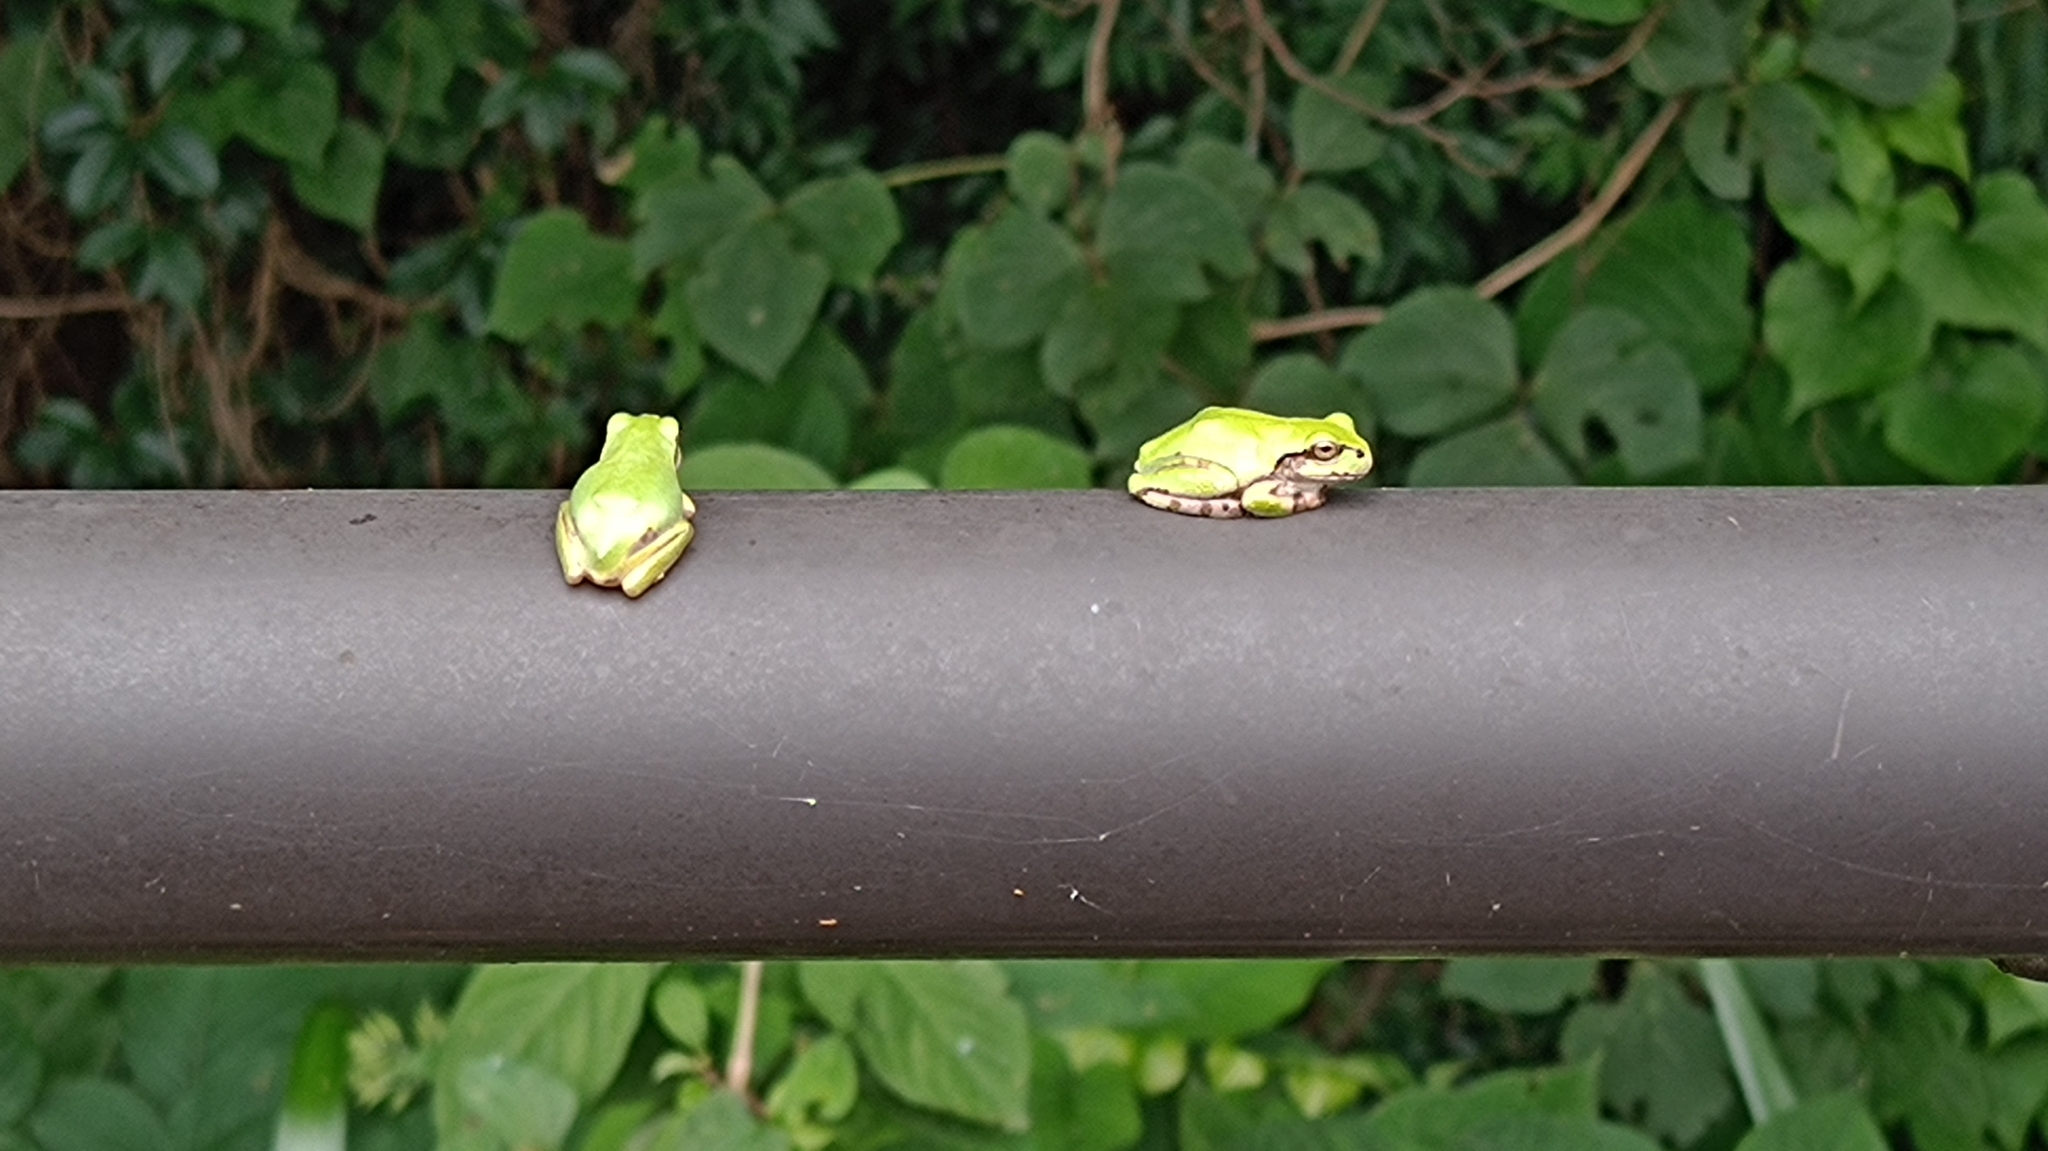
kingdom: Animalia
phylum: Chordata
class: Amphibia
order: Anura
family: Hylidae
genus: Dryophytes
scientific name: Dryophytes japonicus
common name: Japanese treefrog
